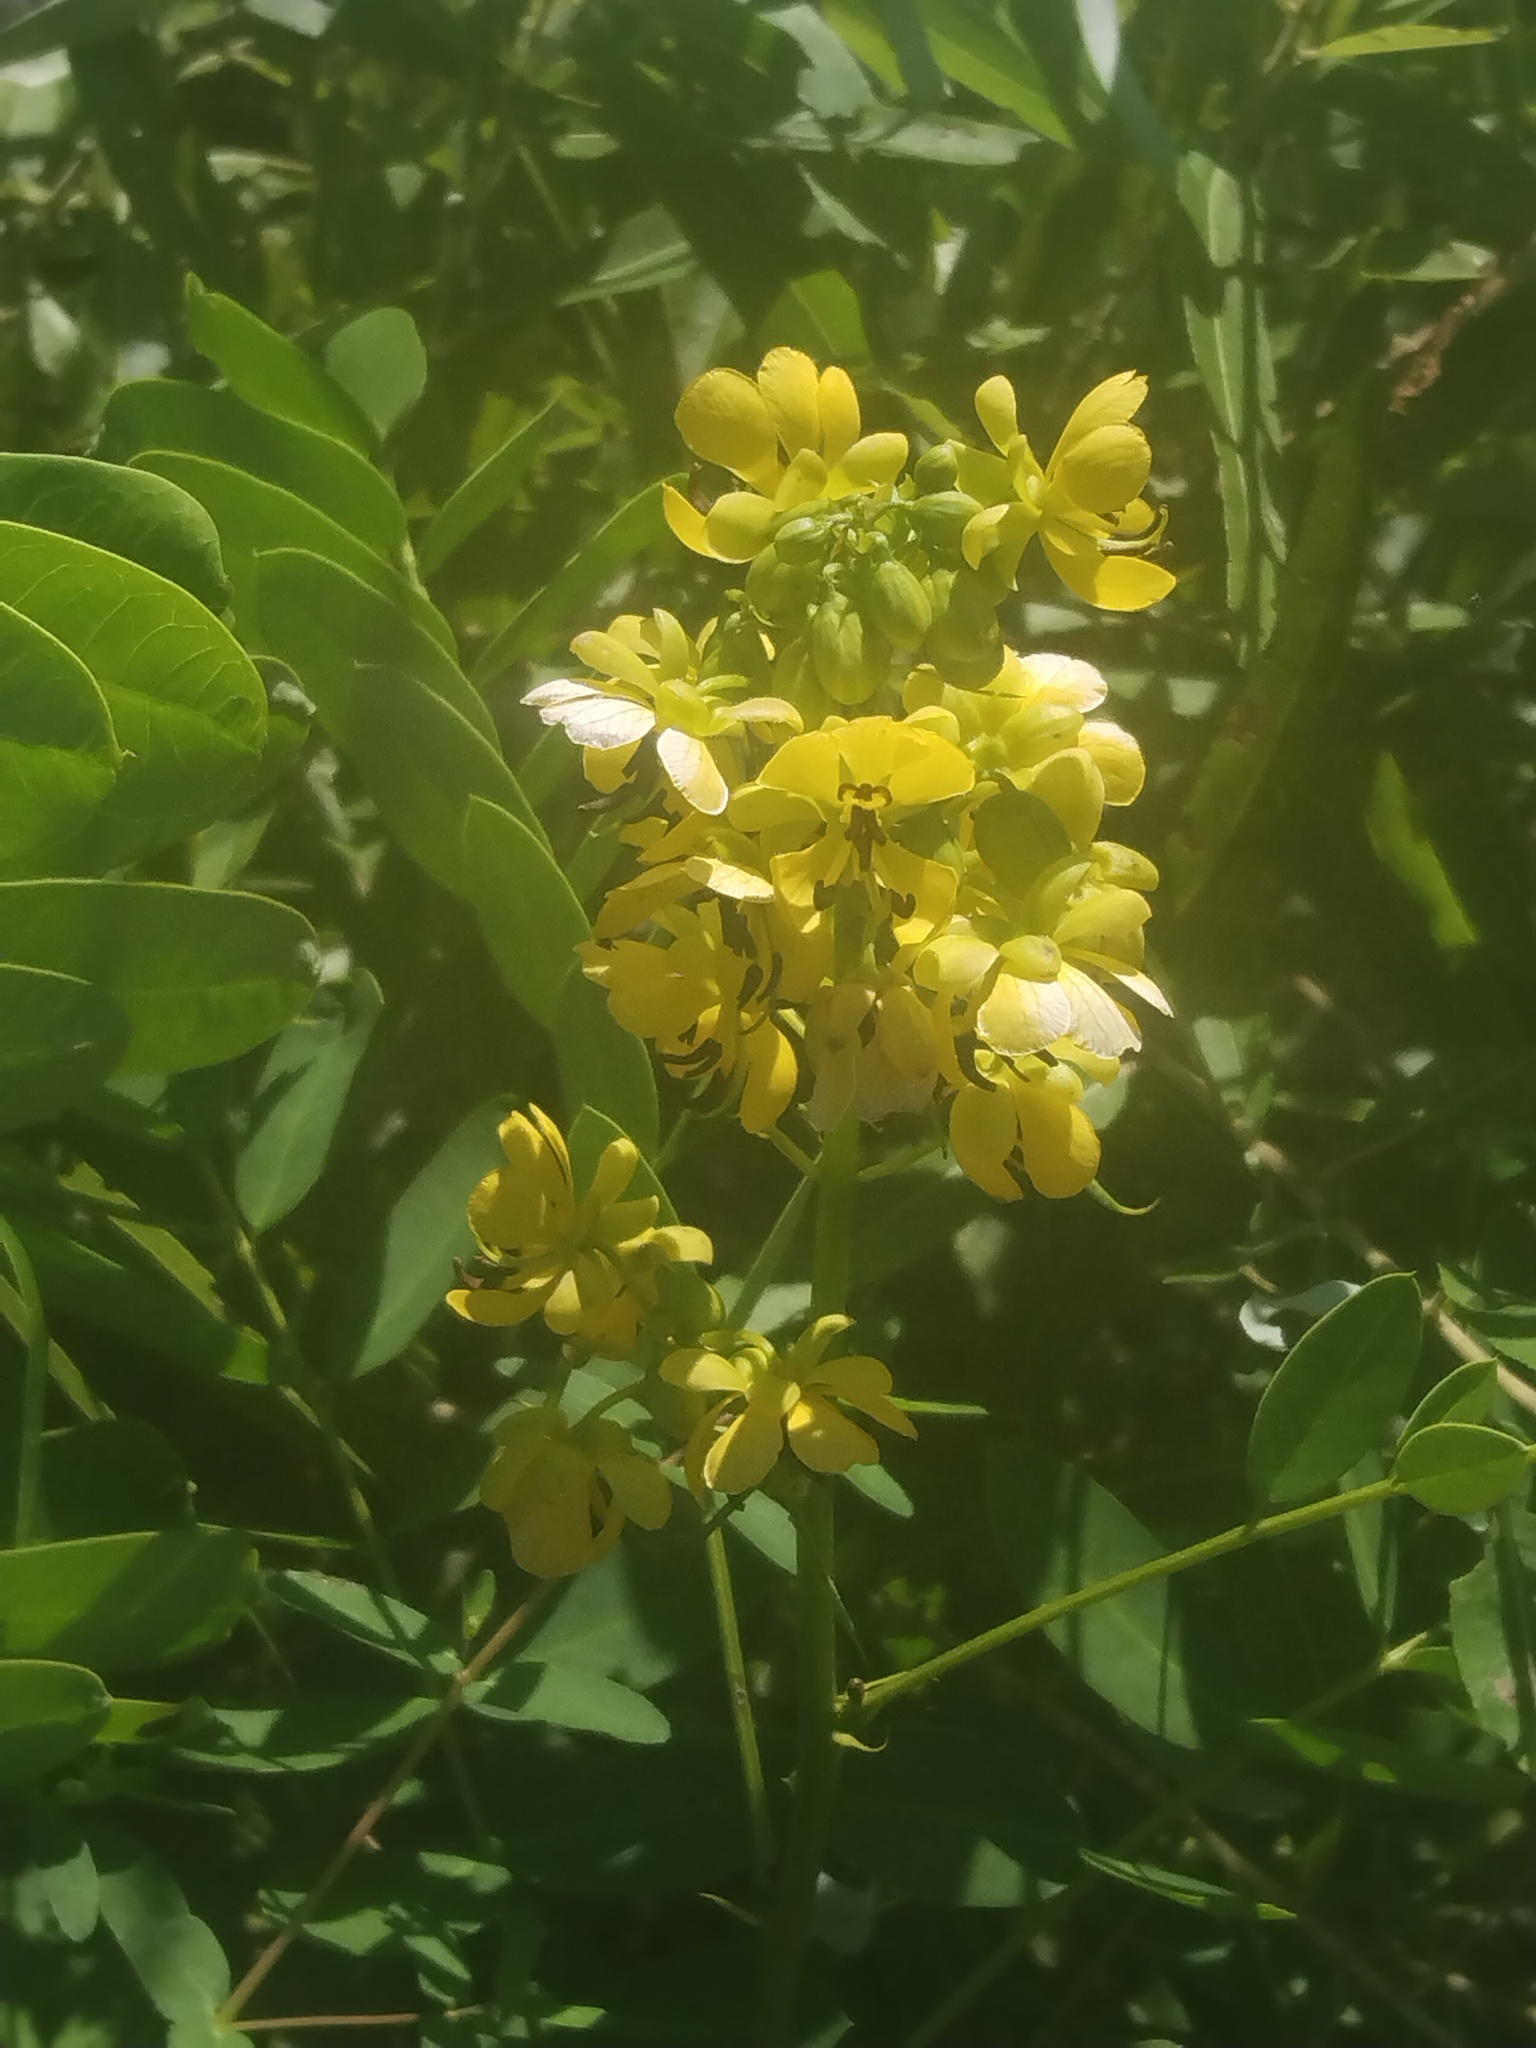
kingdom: Plantae
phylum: Tracheophyta
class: Magnoliopsida
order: Fabales
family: Fabaceae
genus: Senna
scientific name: Senna marilandica
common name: American senna
